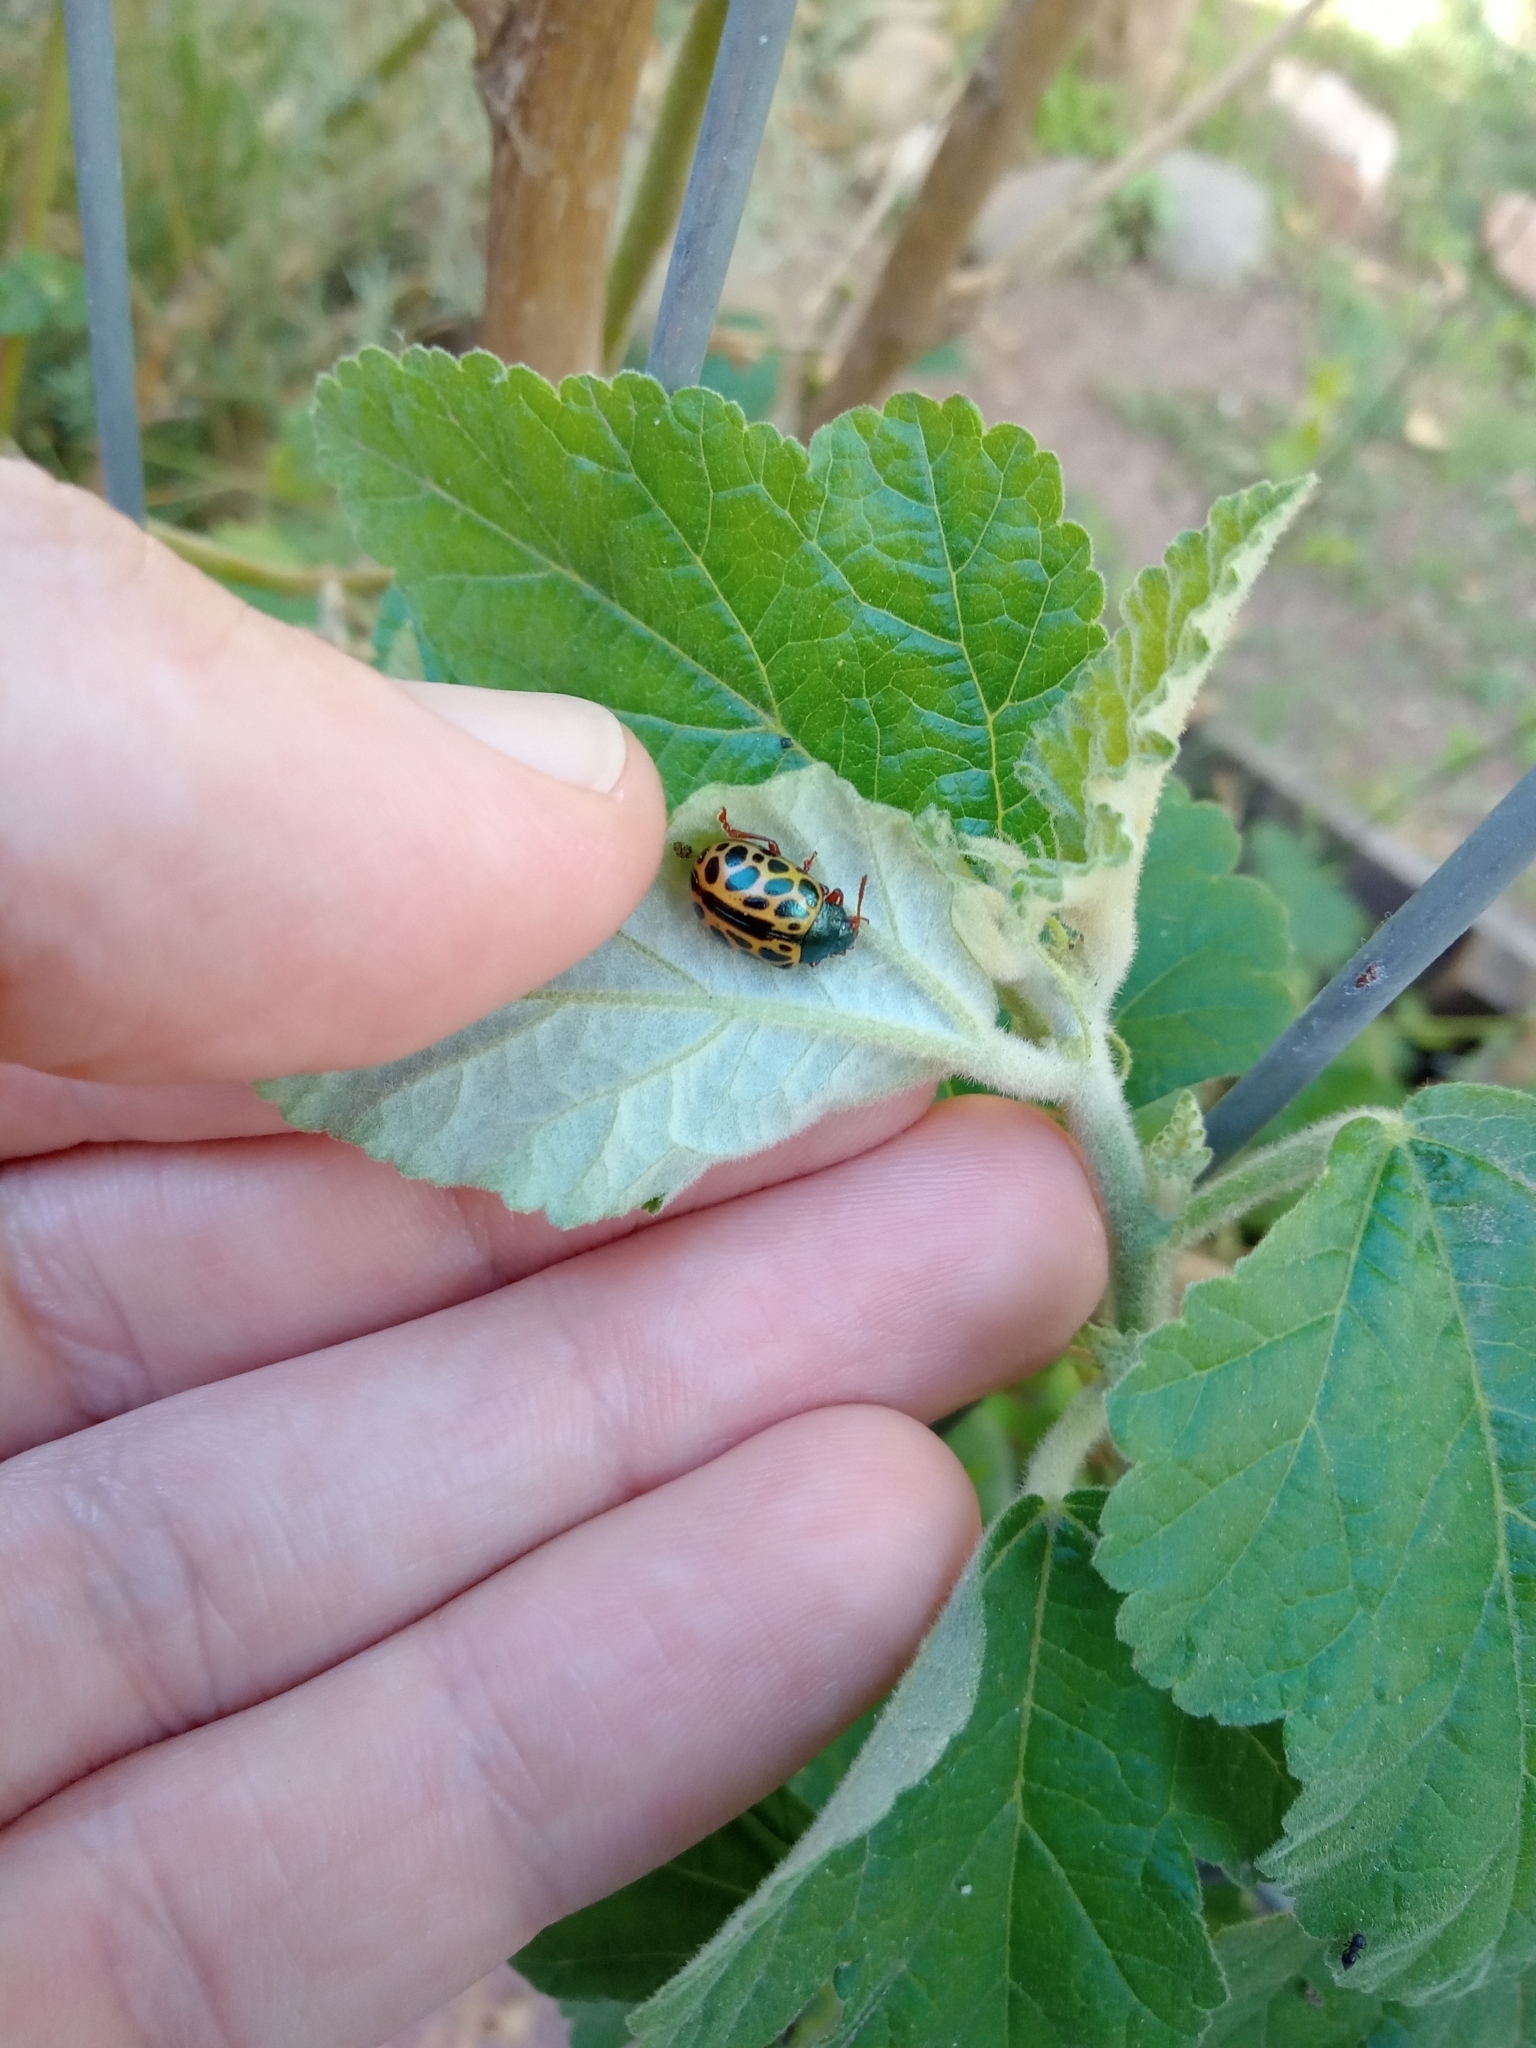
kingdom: Animalia
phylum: Arthropoda
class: Insecta
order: Coleoptera
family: Chrysomelidae
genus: Calligrapha
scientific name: Calligrapha polyspila
